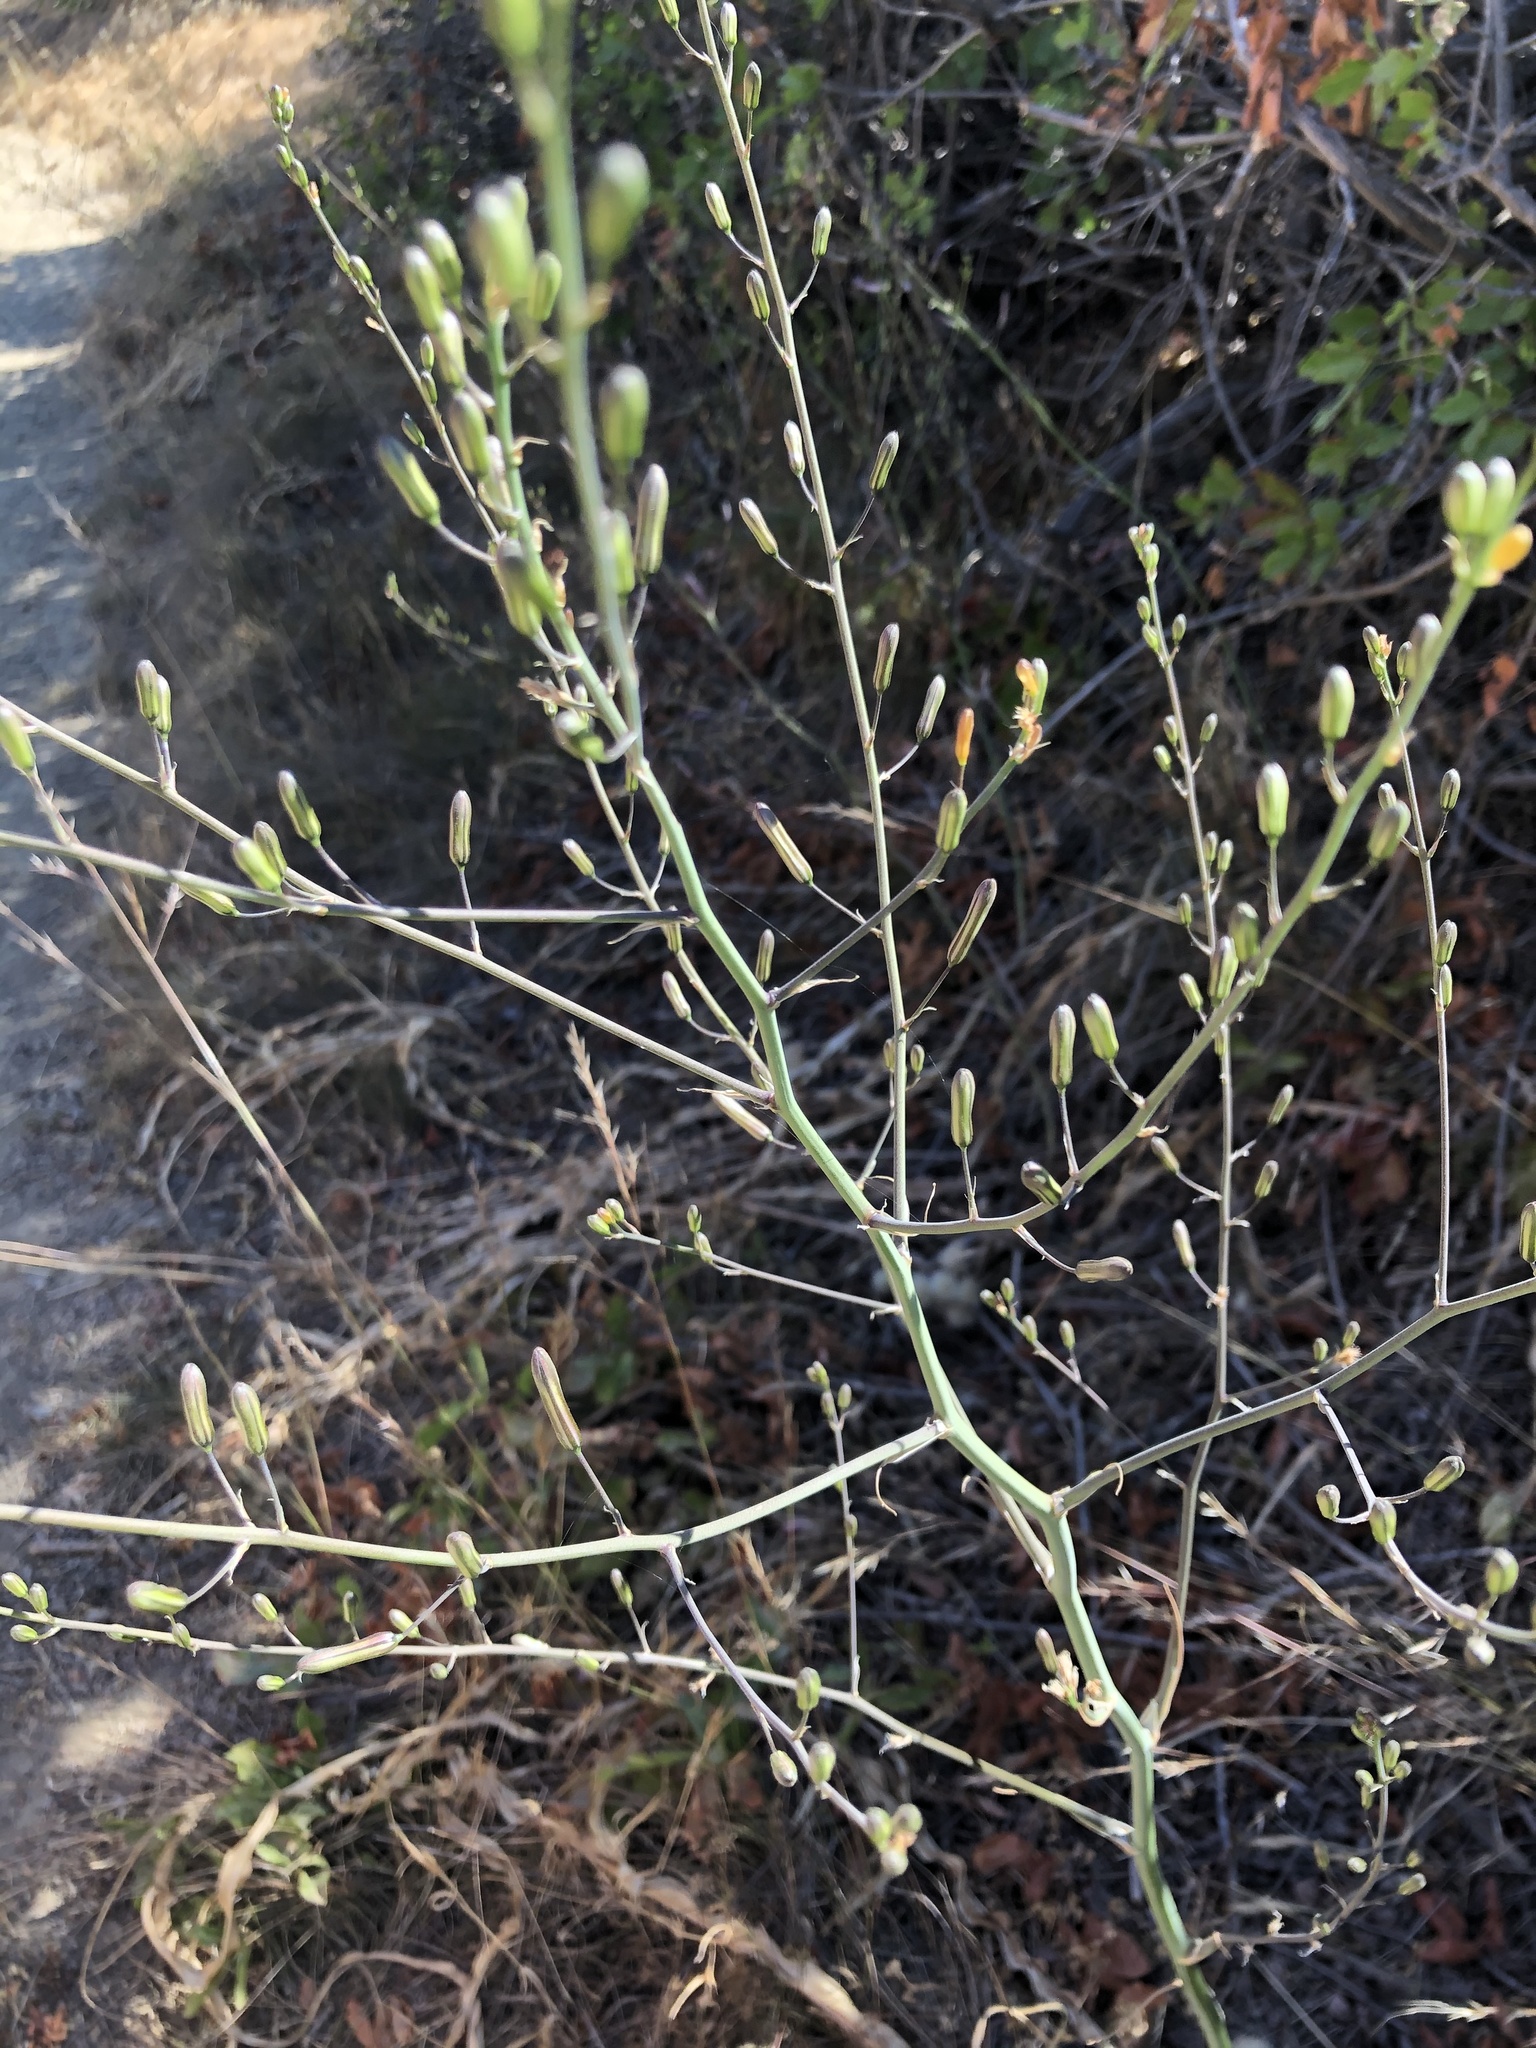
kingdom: Plantae
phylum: Tracheophyta
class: Liliopsida
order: Asparagales
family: Asparagaceae
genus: Chlorogalum
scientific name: Chlorogalum pomeridianum
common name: Amole
